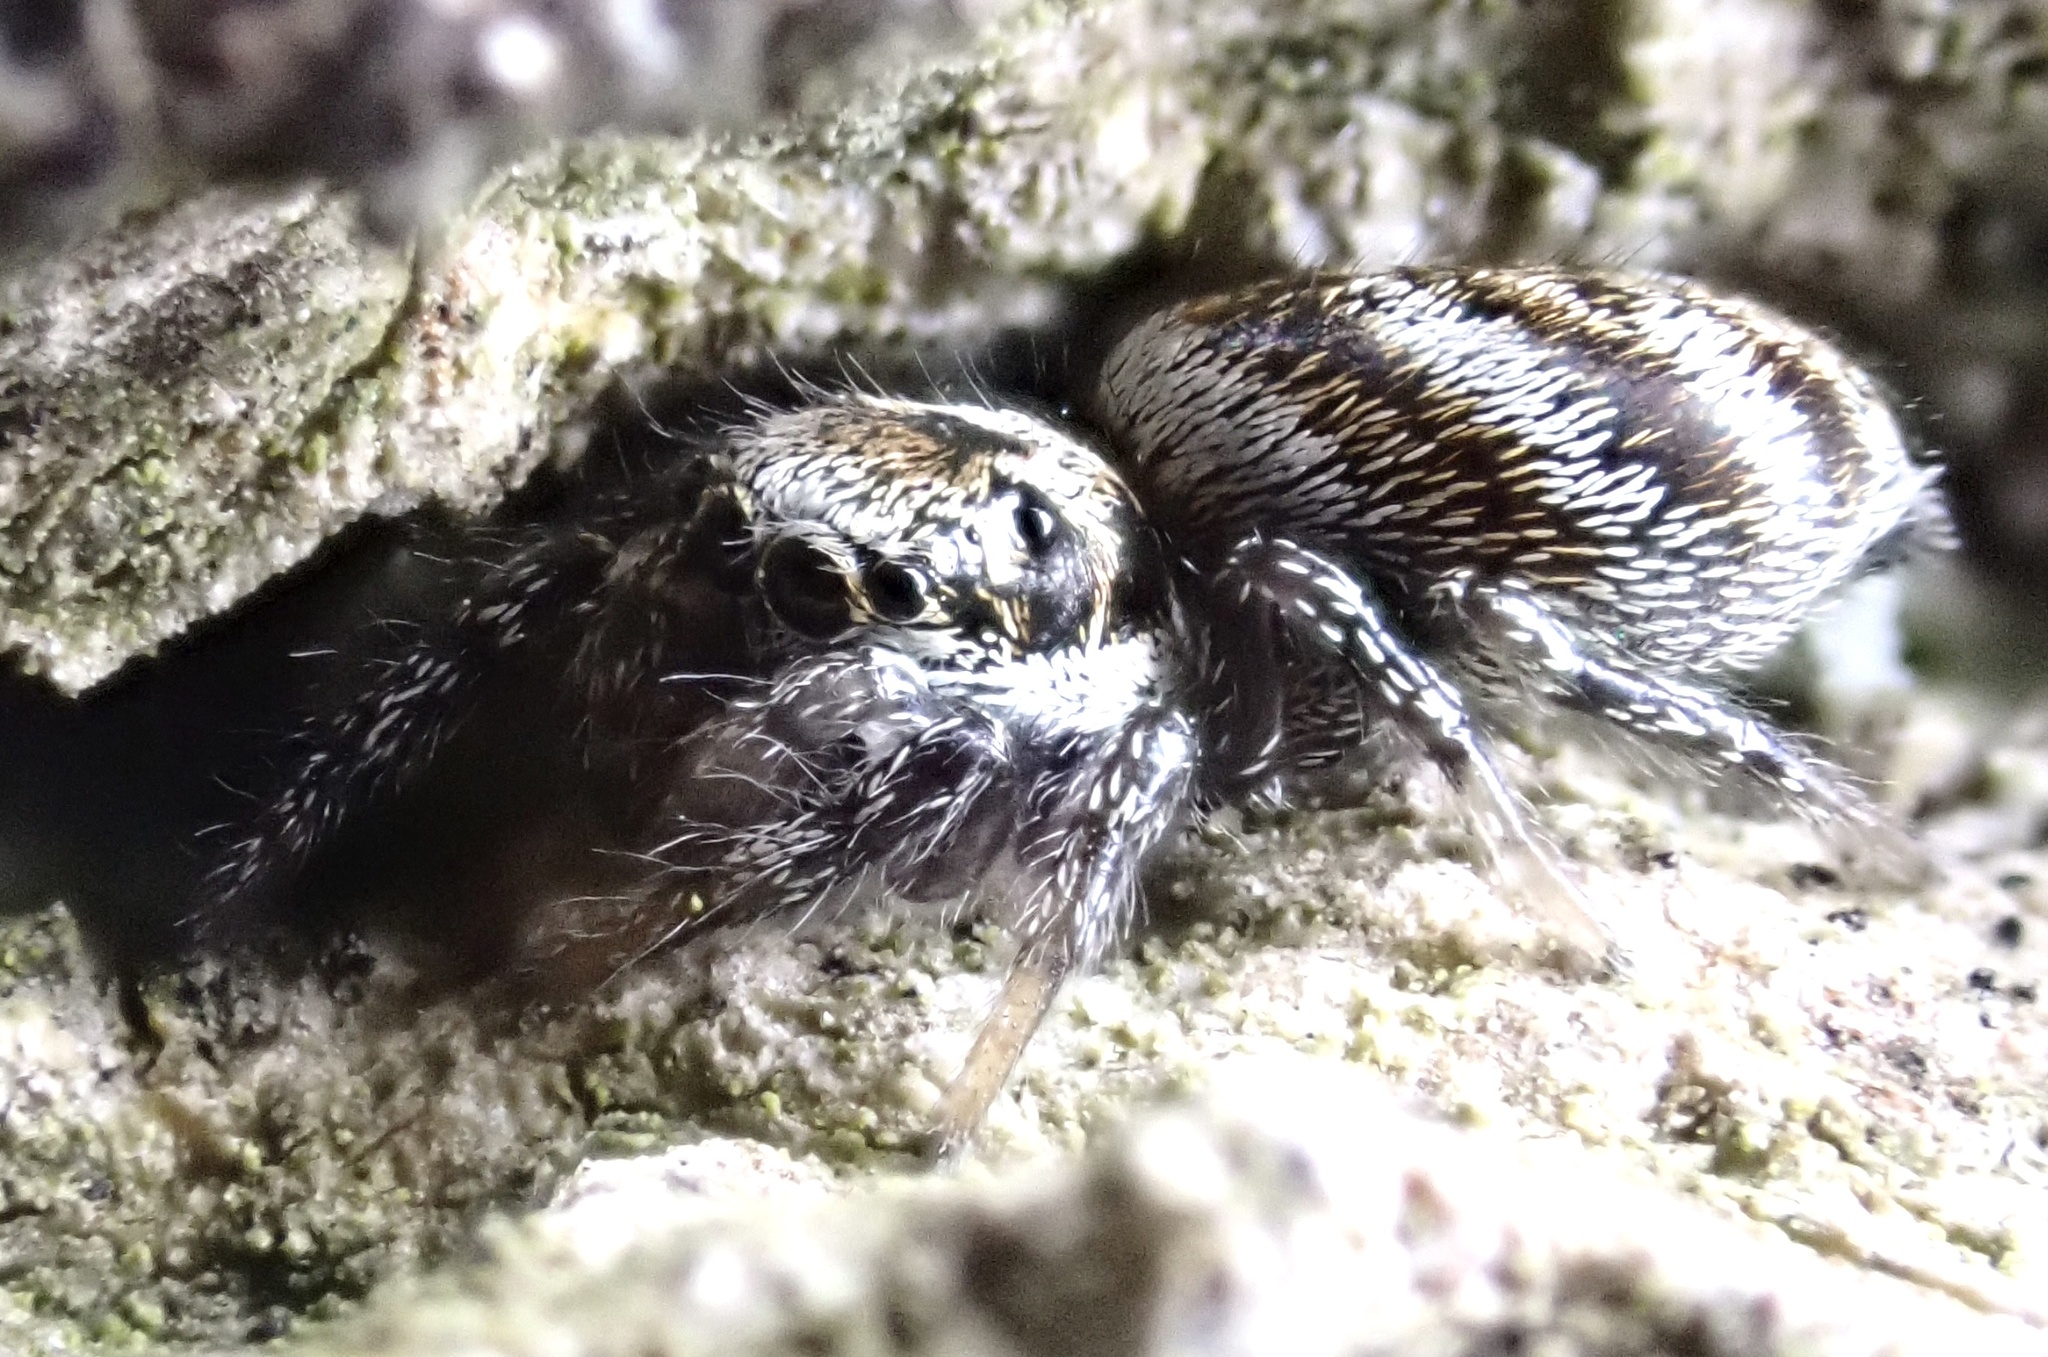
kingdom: Animalia
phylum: Arthropoda
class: Arachnida
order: Araneae
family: Salticidae
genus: Salticus
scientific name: Salticus scenicus
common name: Zebra jumper
